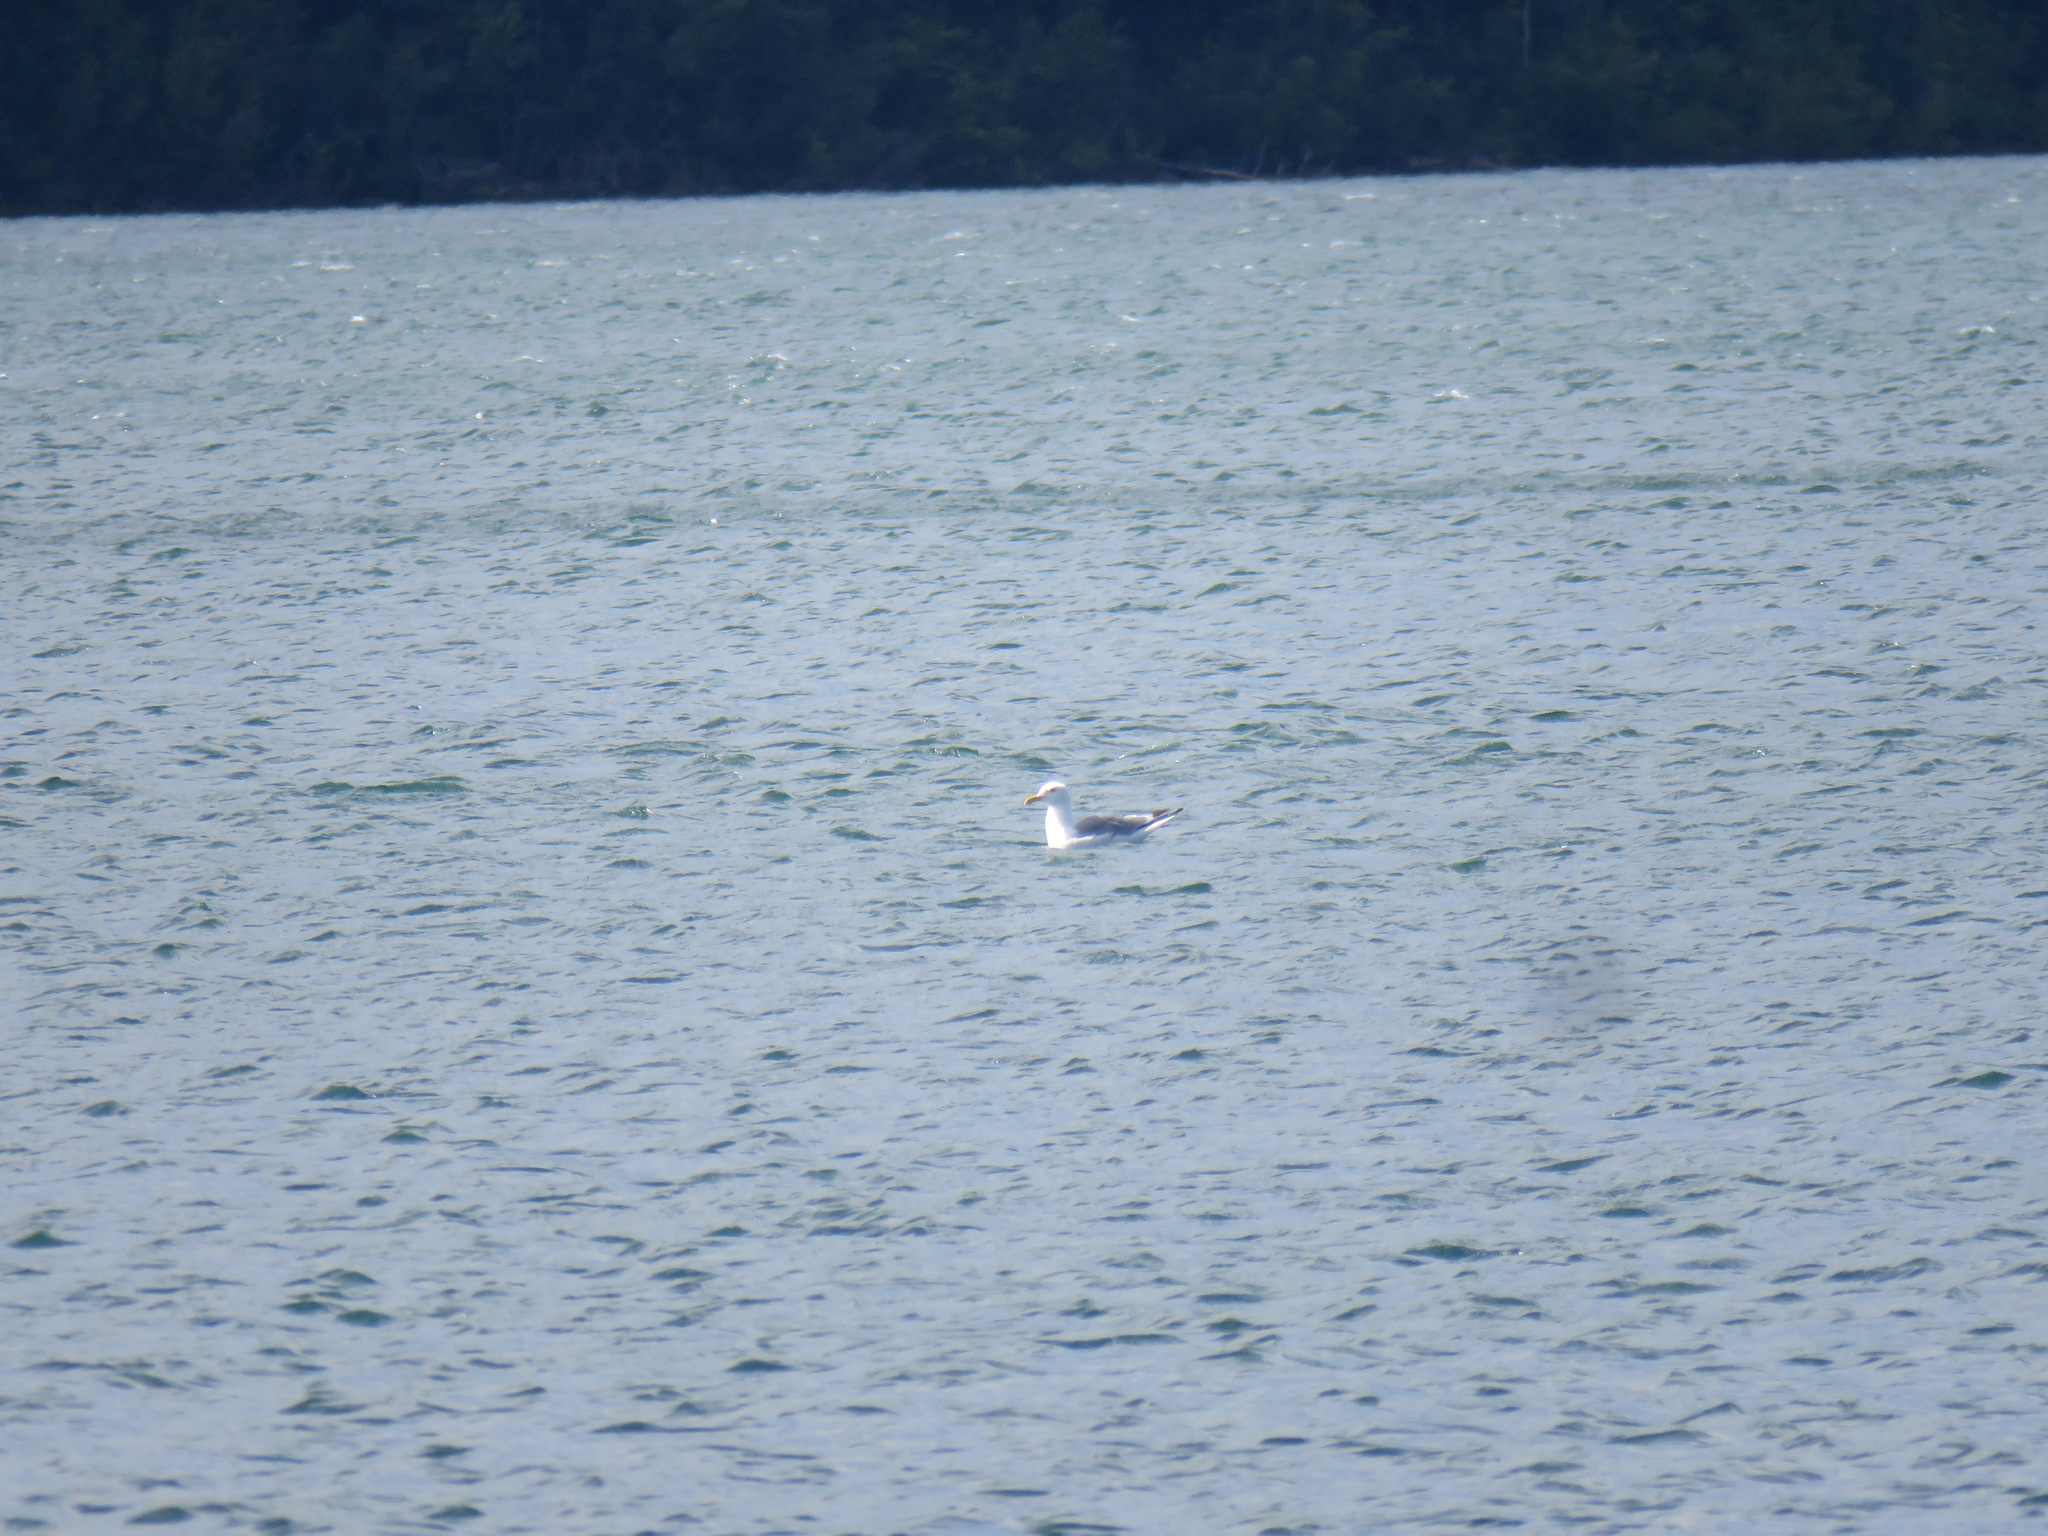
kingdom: Animalia
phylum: Chordata
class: Aves
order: Charadriiformes
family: Laridae
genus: Larus
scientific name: Larus argentatus
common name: Herring gull
